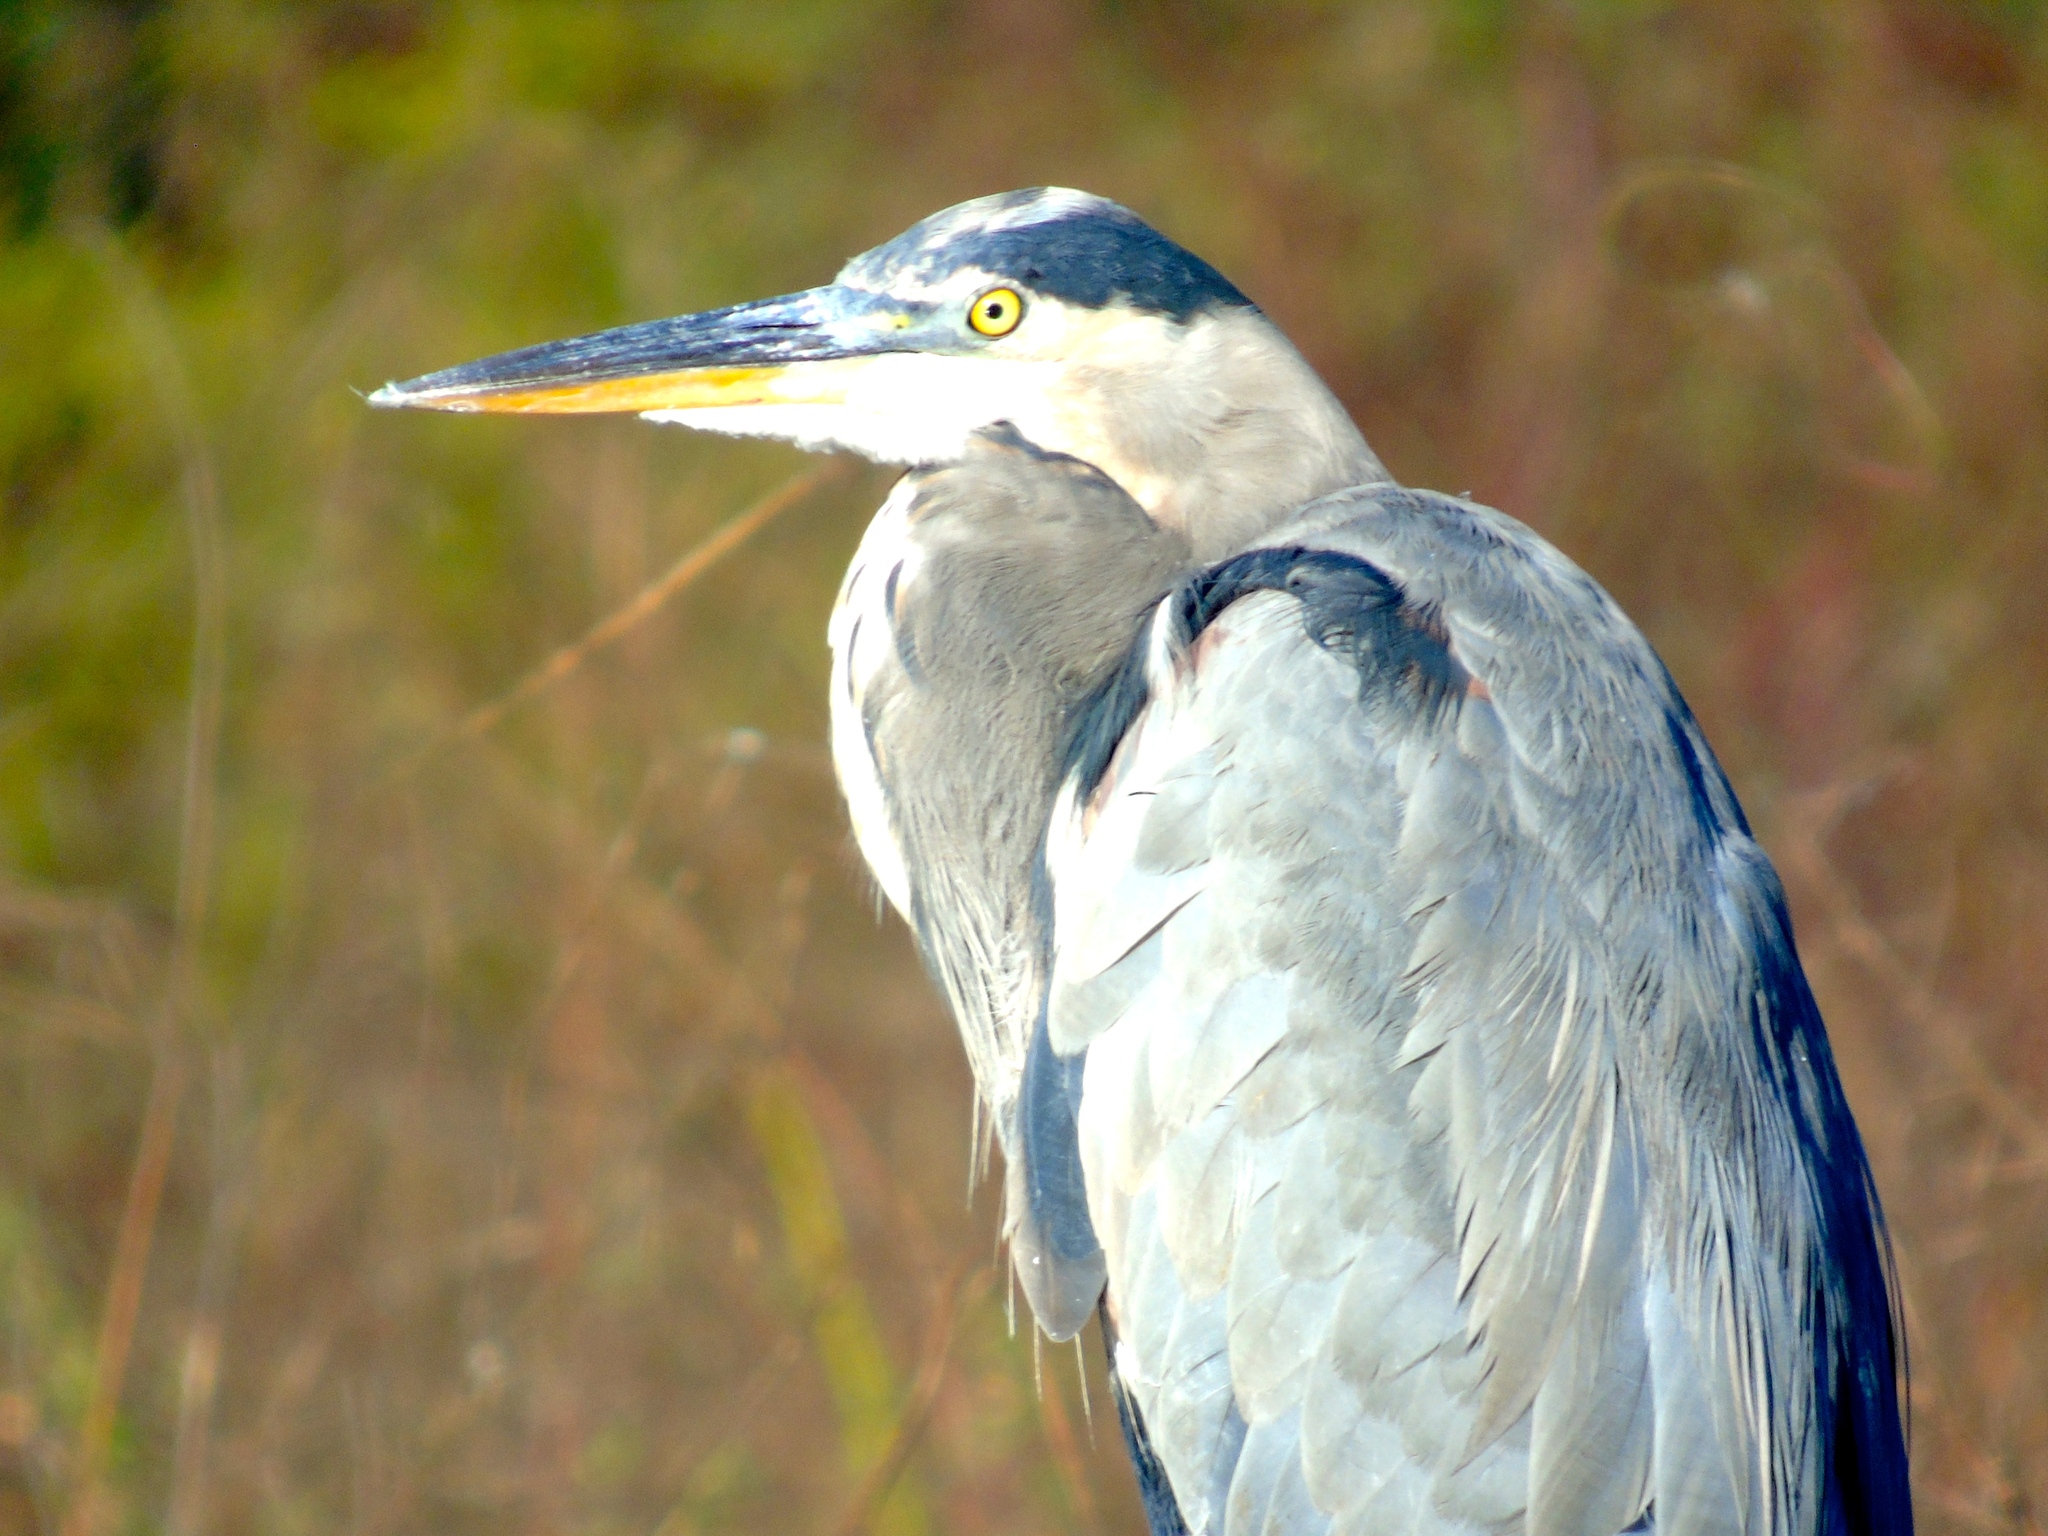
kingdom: Animalia
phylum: Chordata
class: Aves
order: Pelecaniformes
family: Ardeidae
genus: Ardea
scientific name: Ardea herodias
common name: Great blue heron
